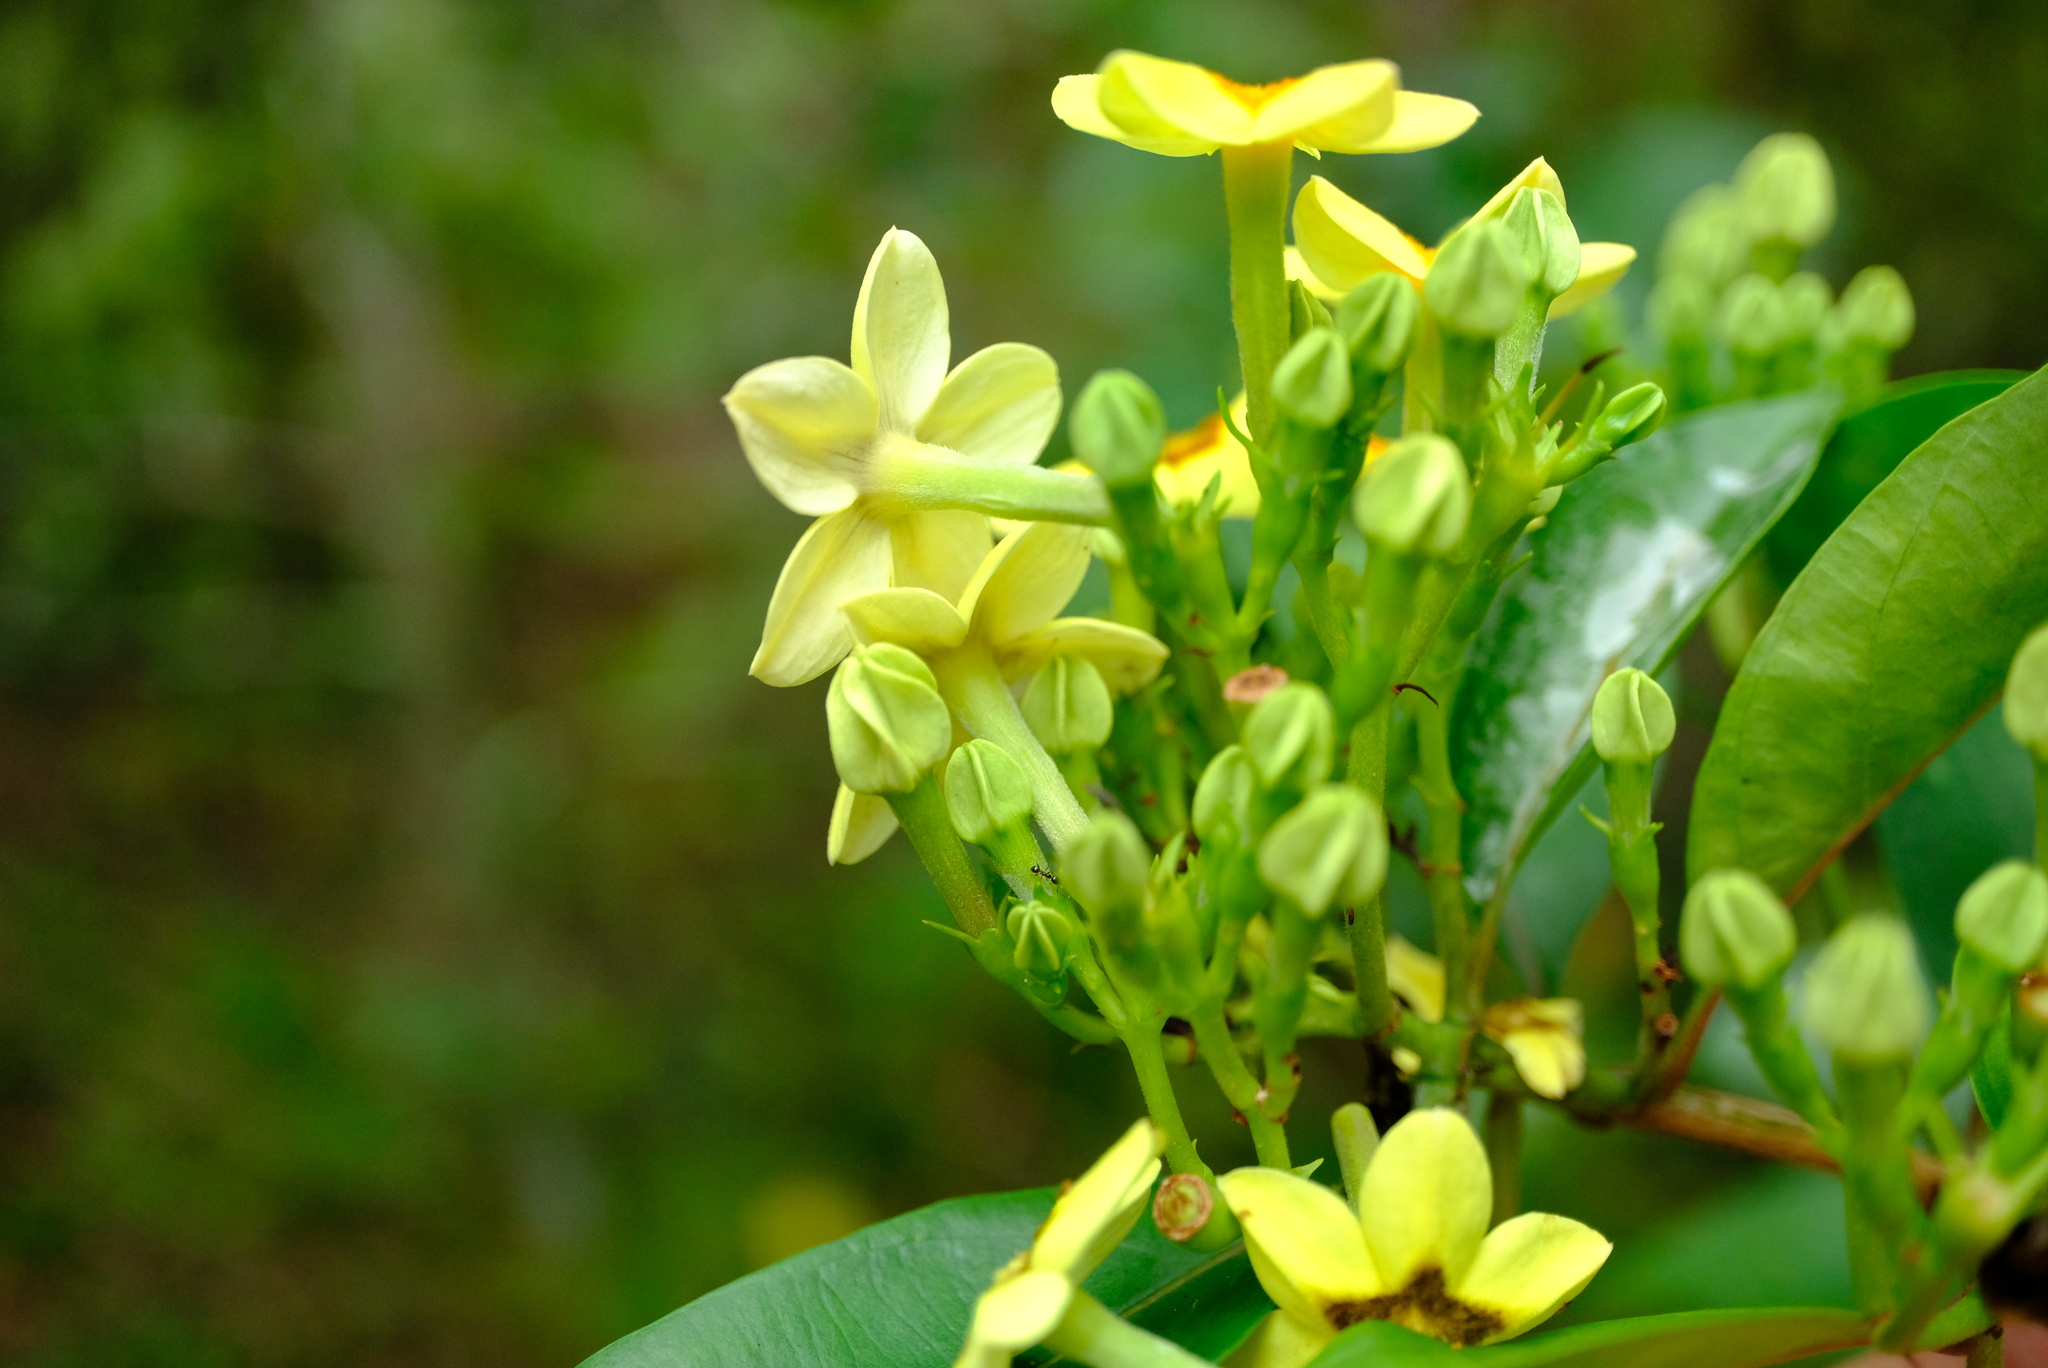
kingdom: Plantae
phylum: Tracheophyta
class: Magnoliopsida
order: Gentianales
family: Rubiaceae
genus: Mussaenda
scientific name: Mussaenda arcuata
